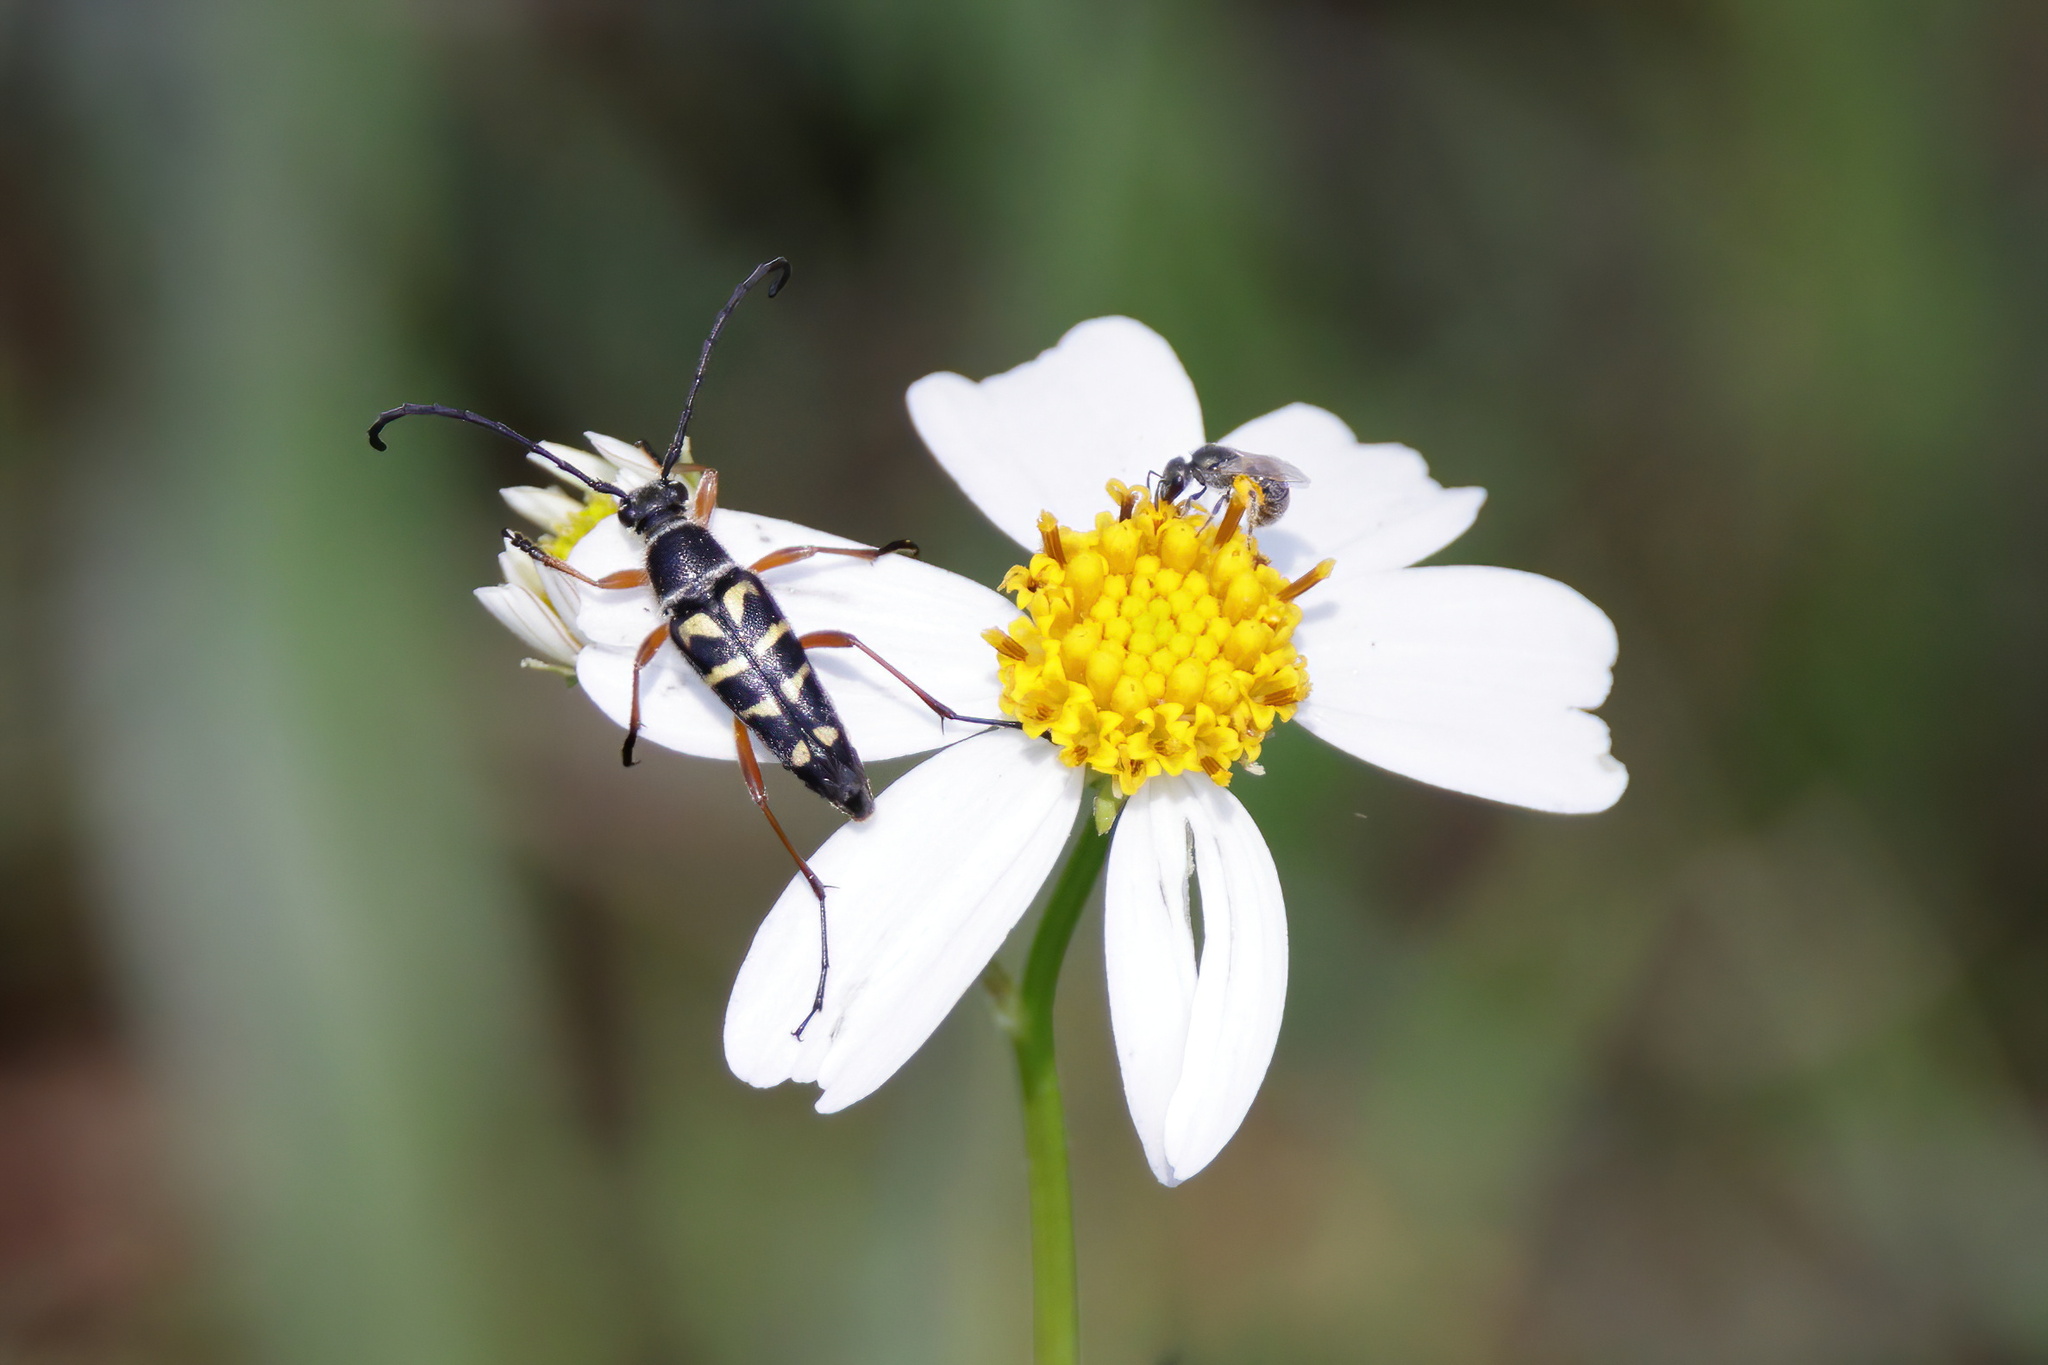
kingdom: Animalia
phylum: Arthropoda
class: Insecta
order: Coleoptera
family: Cerambycidae
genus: Typocerus
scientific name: Typocerus zebra
